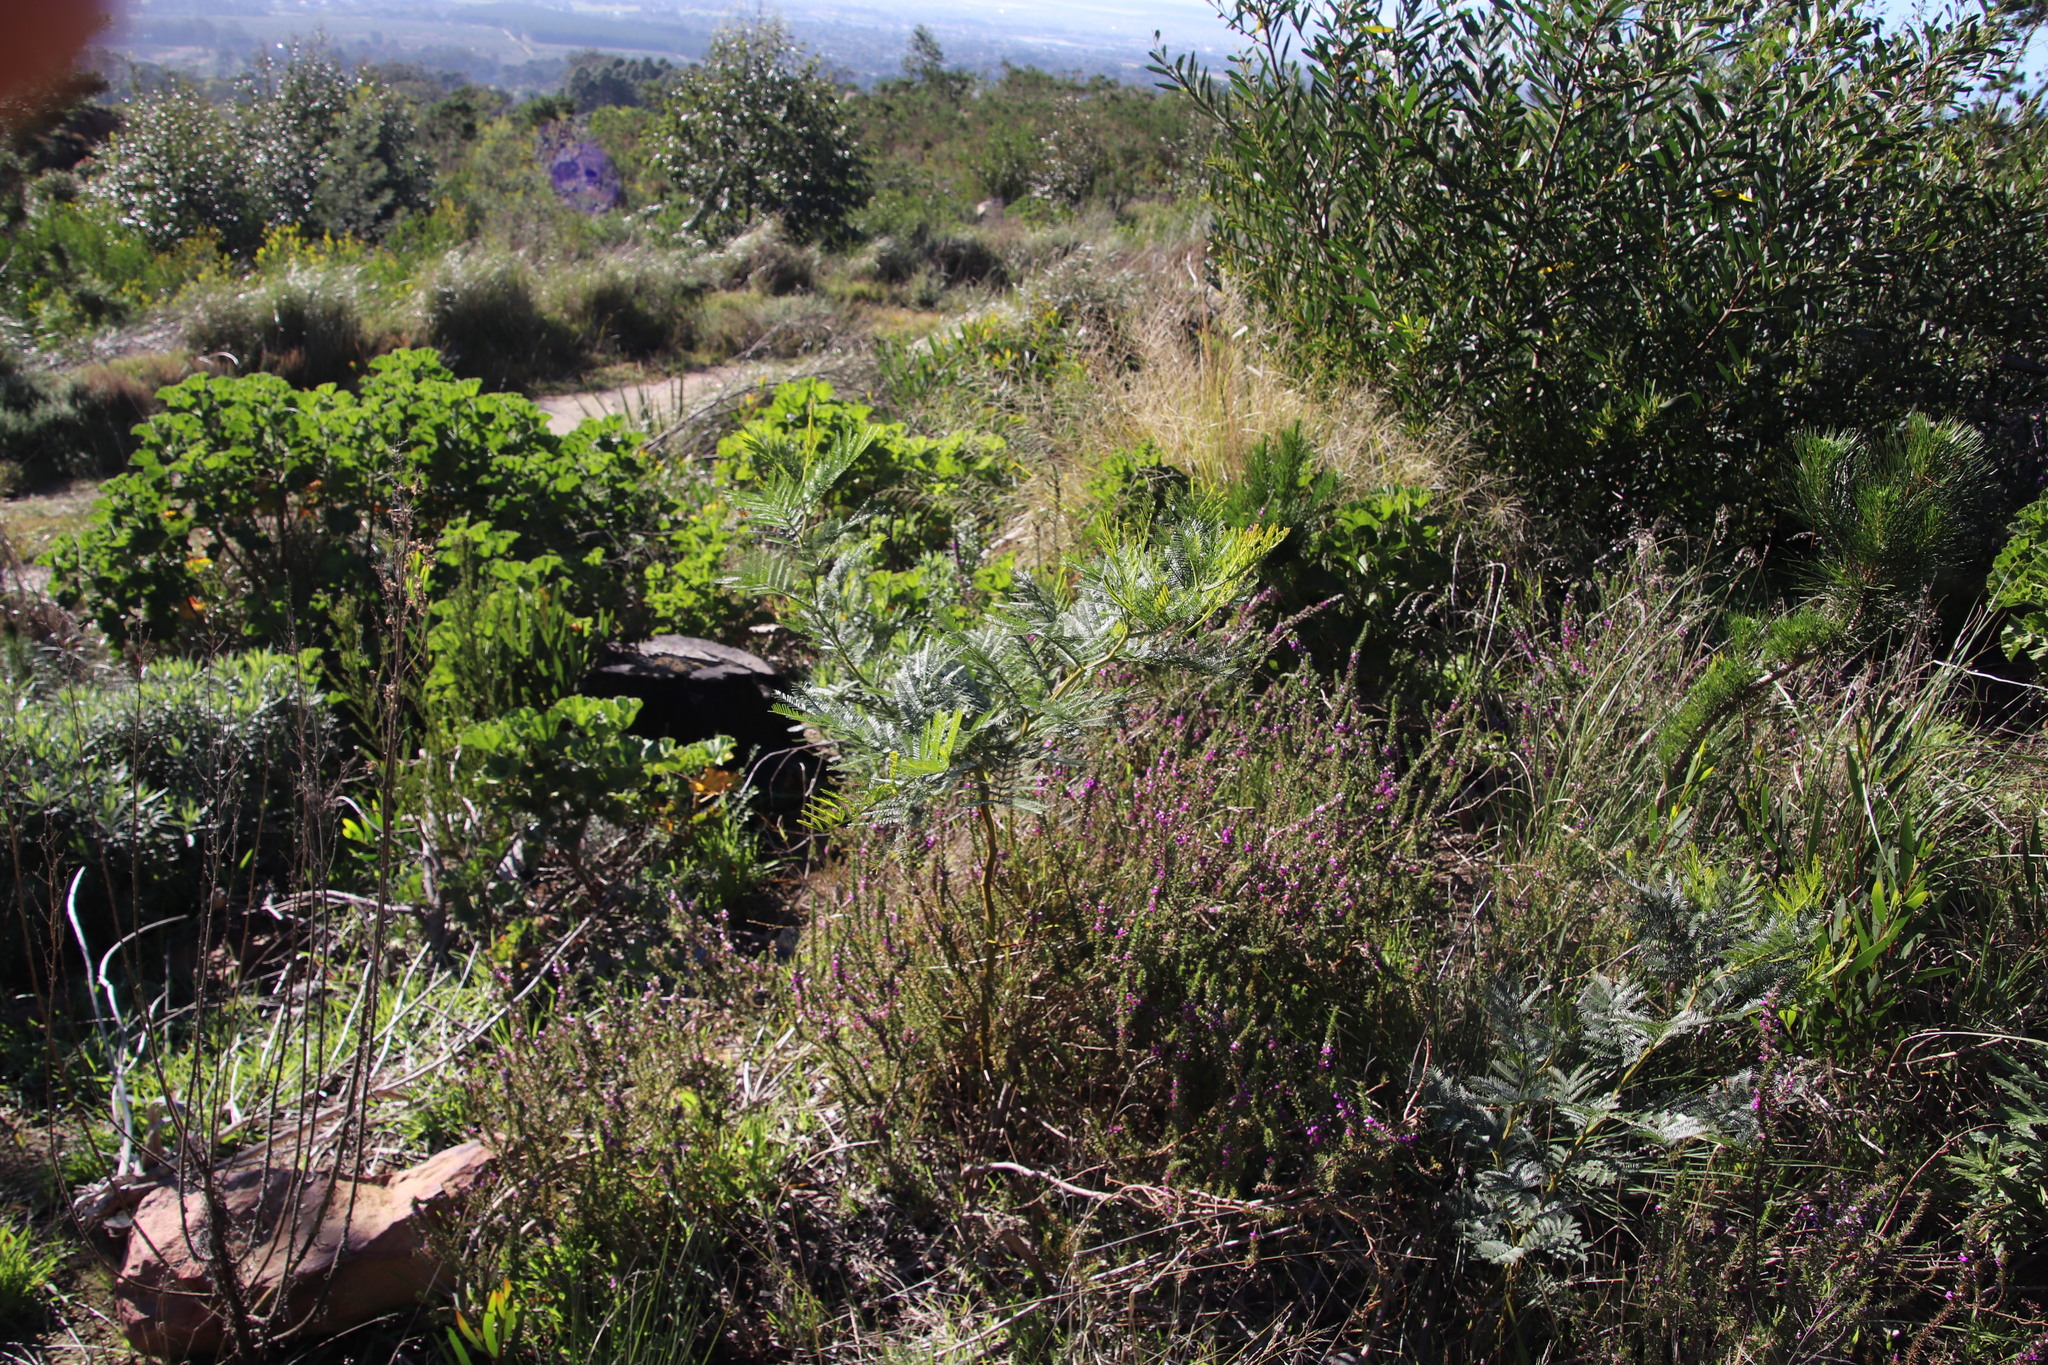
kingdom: Plantae
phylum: Tracheophyta
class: Magnoliopsida
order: Fabales
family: Fabaceae
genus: Acacia
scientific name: Acacia decurrens
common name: Green wattle
